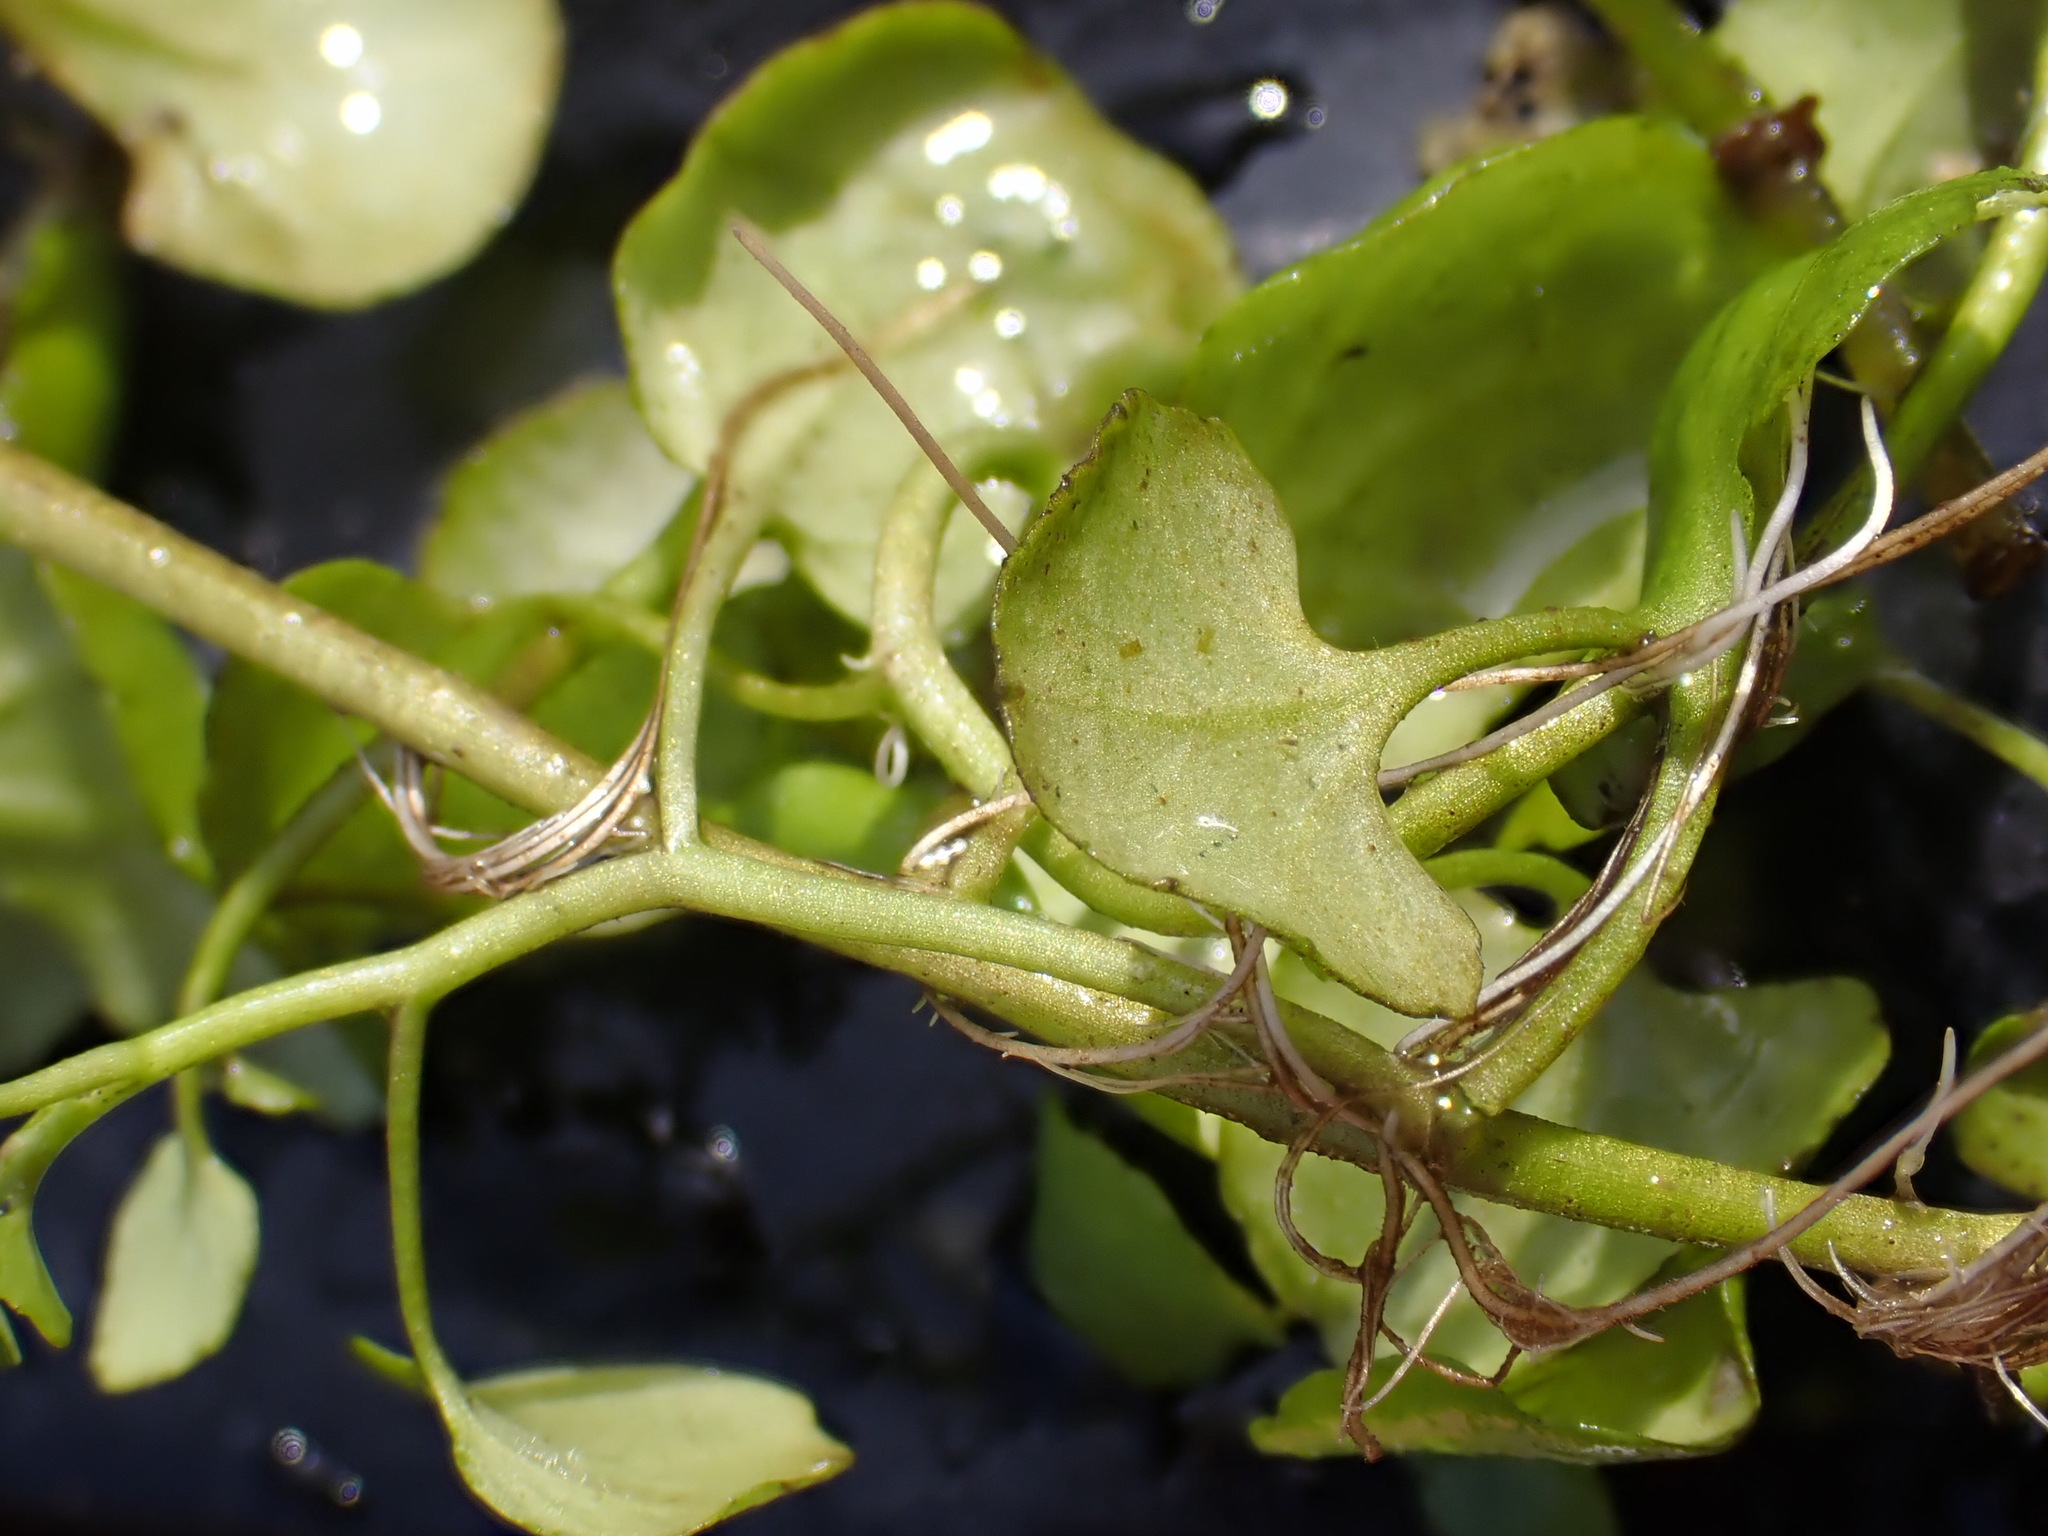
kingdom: Plantae
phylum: Tracheophyta
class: Magnoliopsida
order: Brassicales
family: Brassicaceae
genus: Nasturtium
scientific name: Nasturtium floridanum
